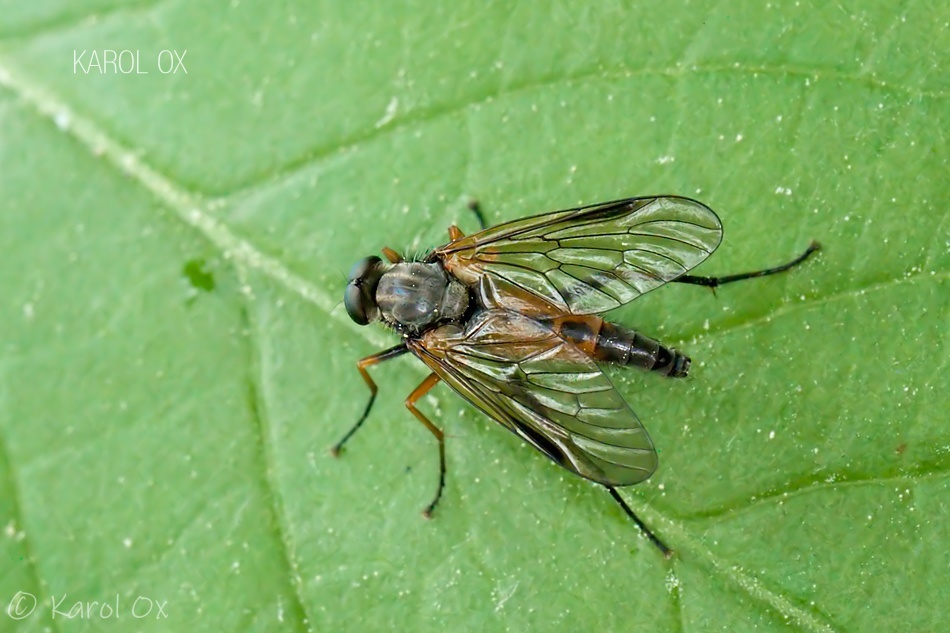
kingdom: Animalia
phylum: Arthropoda
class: Insecta
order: Diptera
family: Rhagionidae
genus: Rhagio
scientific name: Rhagio notatus
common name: Large fleck-winged snipefly
